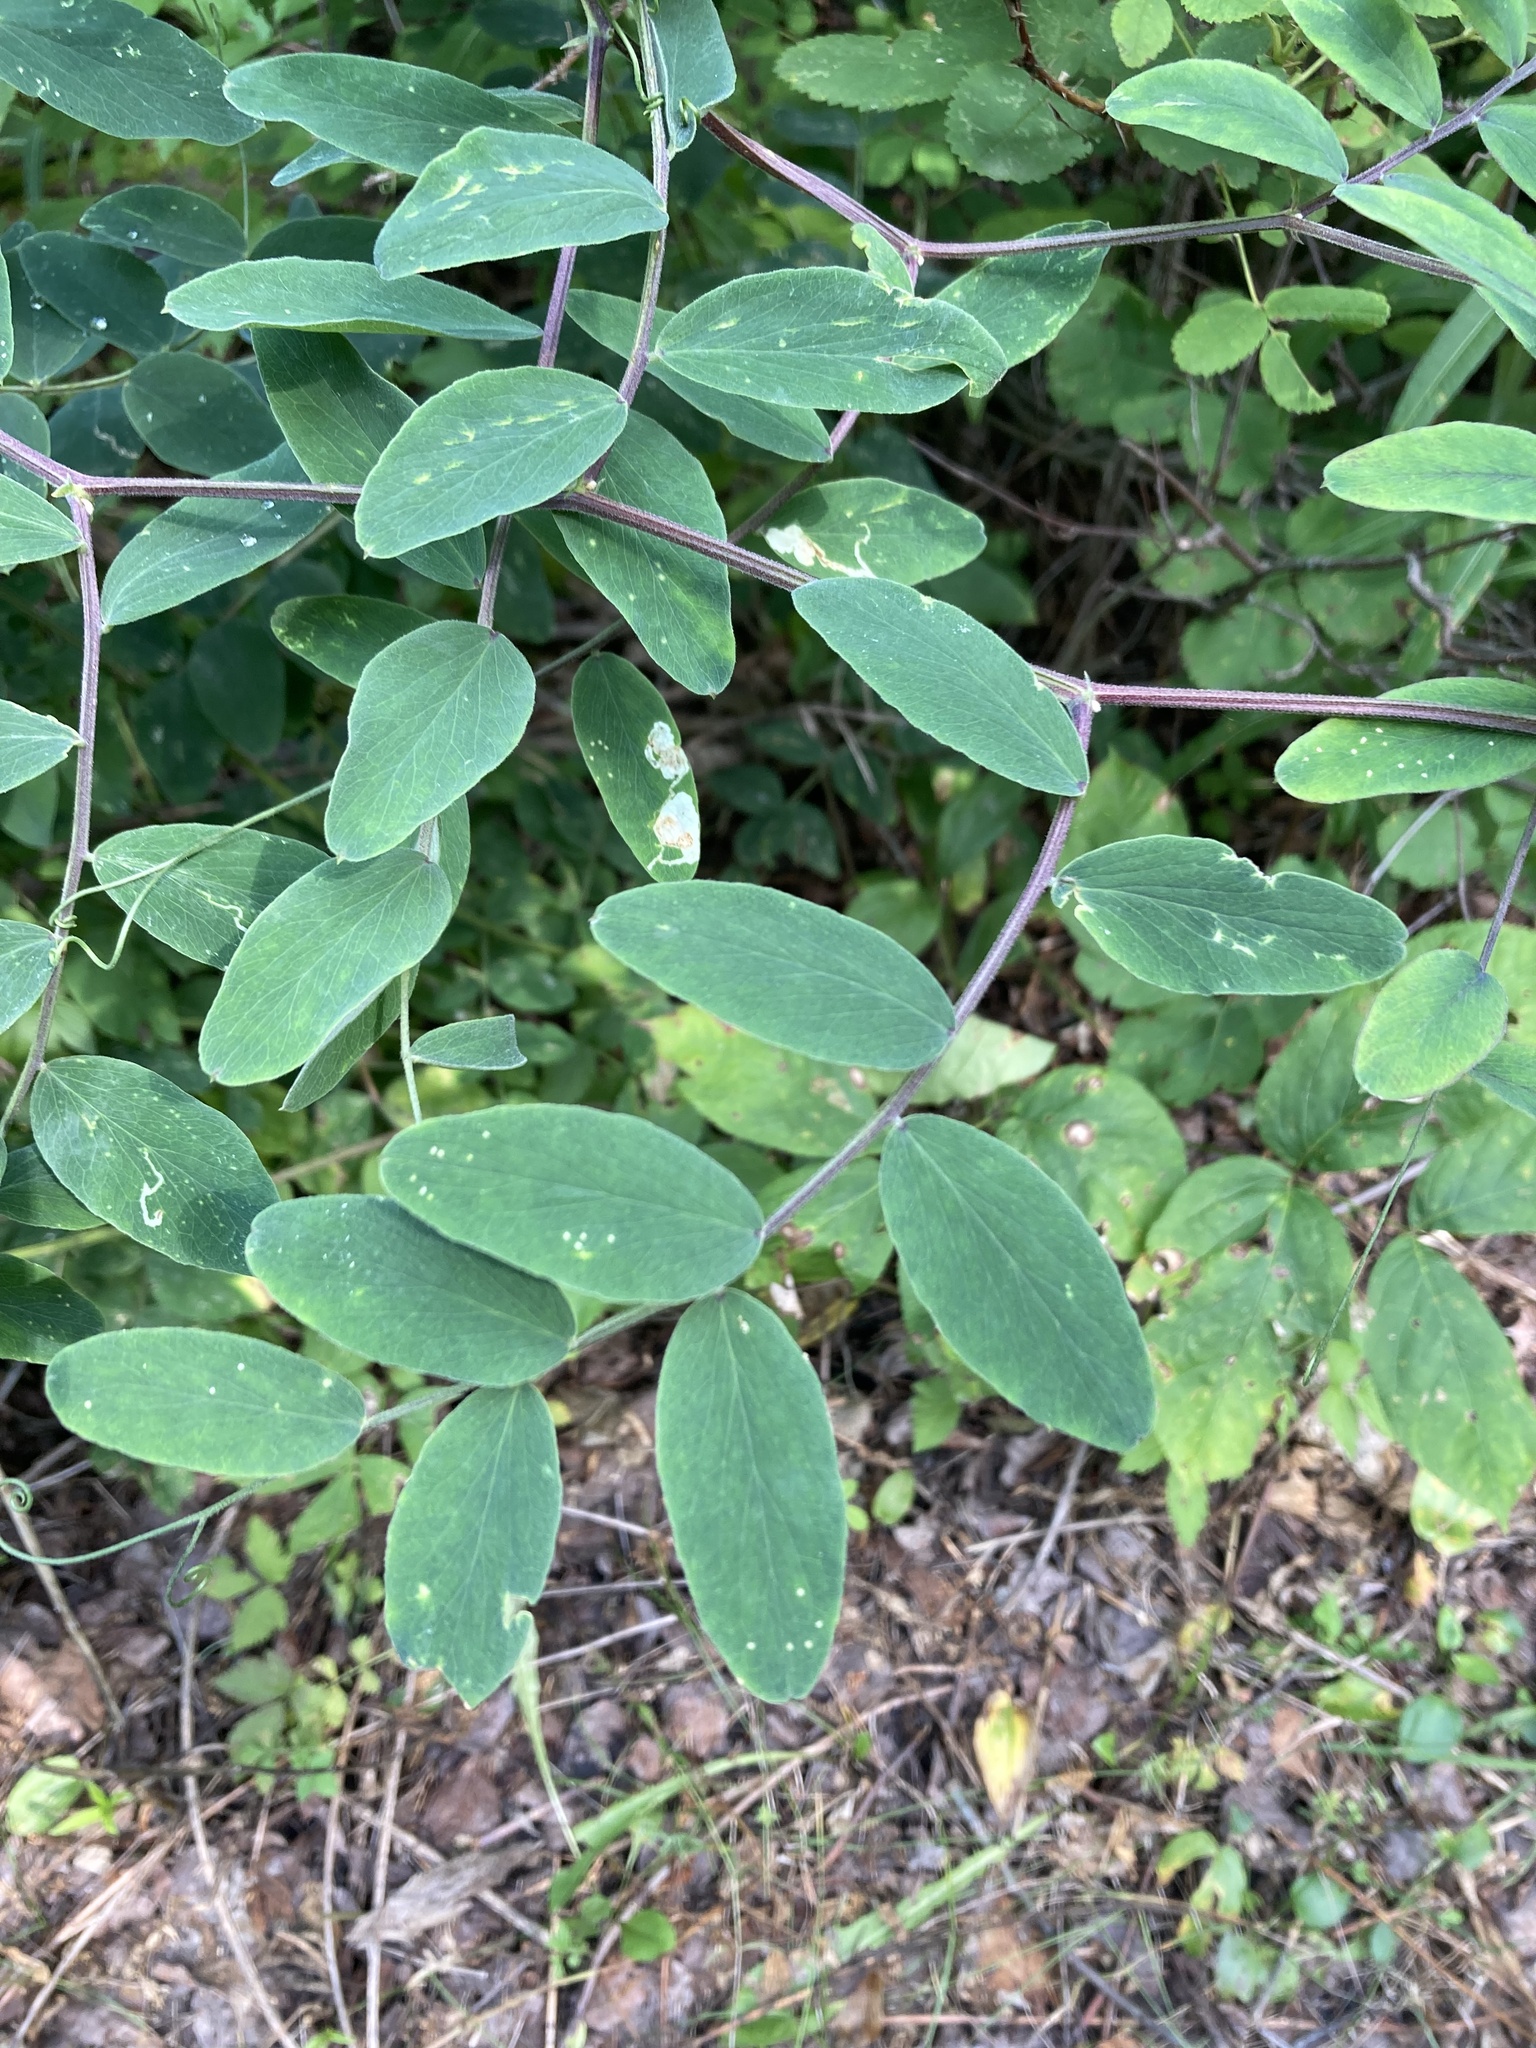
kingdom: Plantae
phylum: Tracheophyta
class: Magnoliopsida
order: Fabales
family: Fabaceae
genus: Lathyrus
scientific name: Lathyrus venosus
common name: Forest-pea
